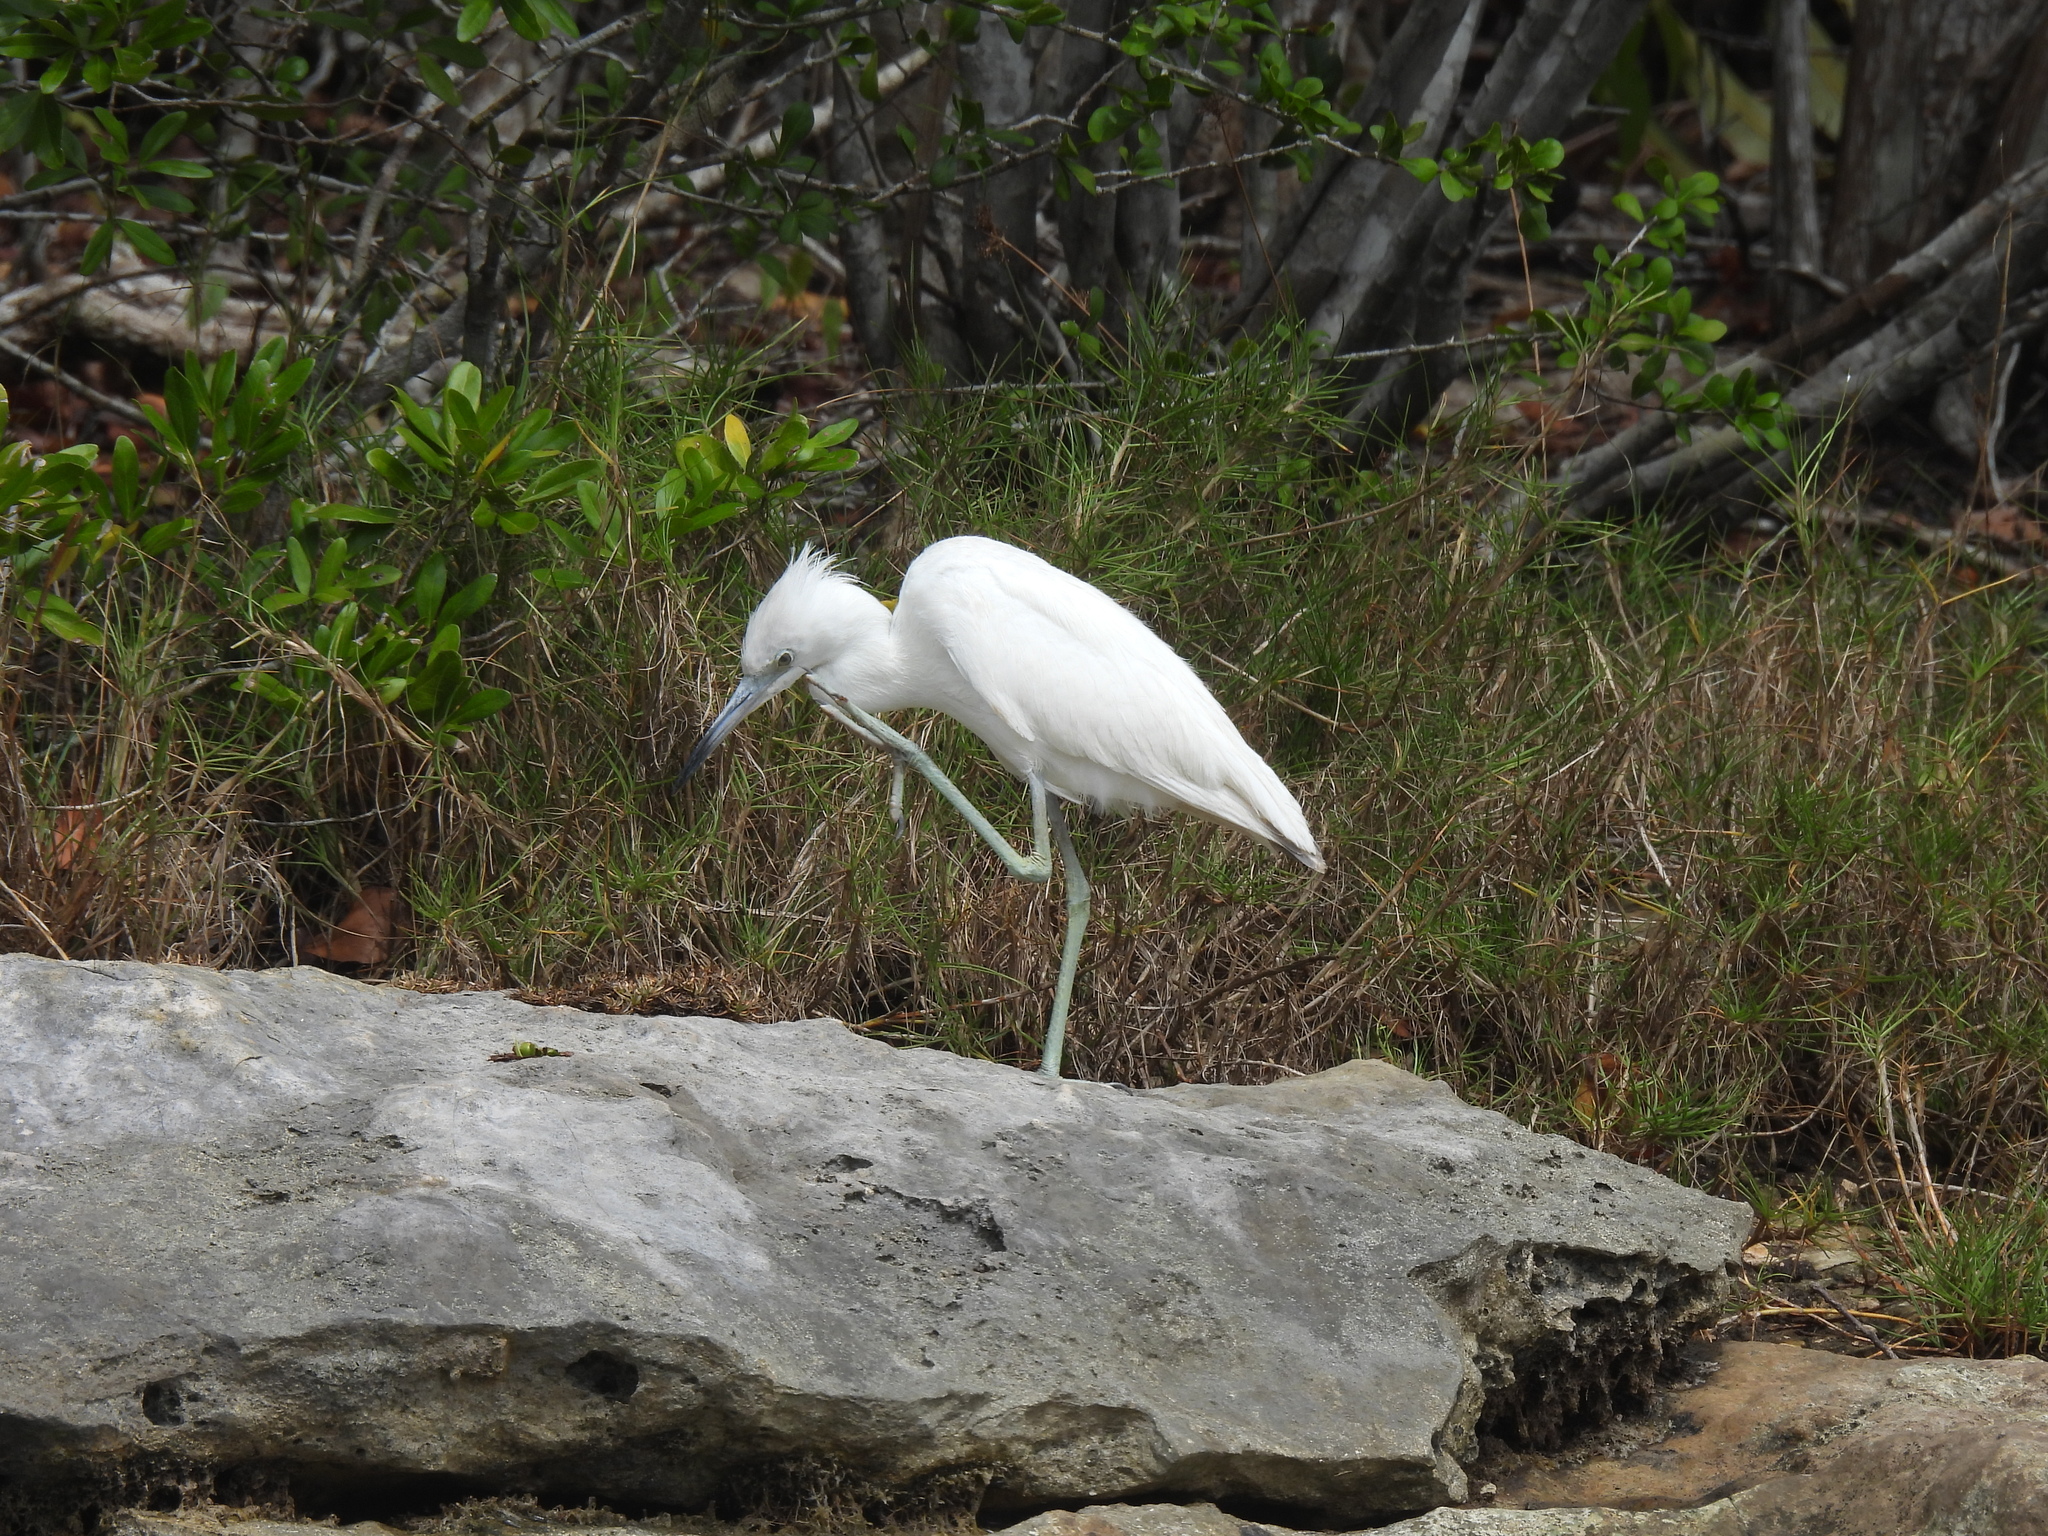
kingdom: Animalia
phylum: Chordata
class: Aves
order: Pelecaniformes
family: Ardeidae
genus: Egretta
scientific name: Egretta caerulea
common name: Little blue heron
